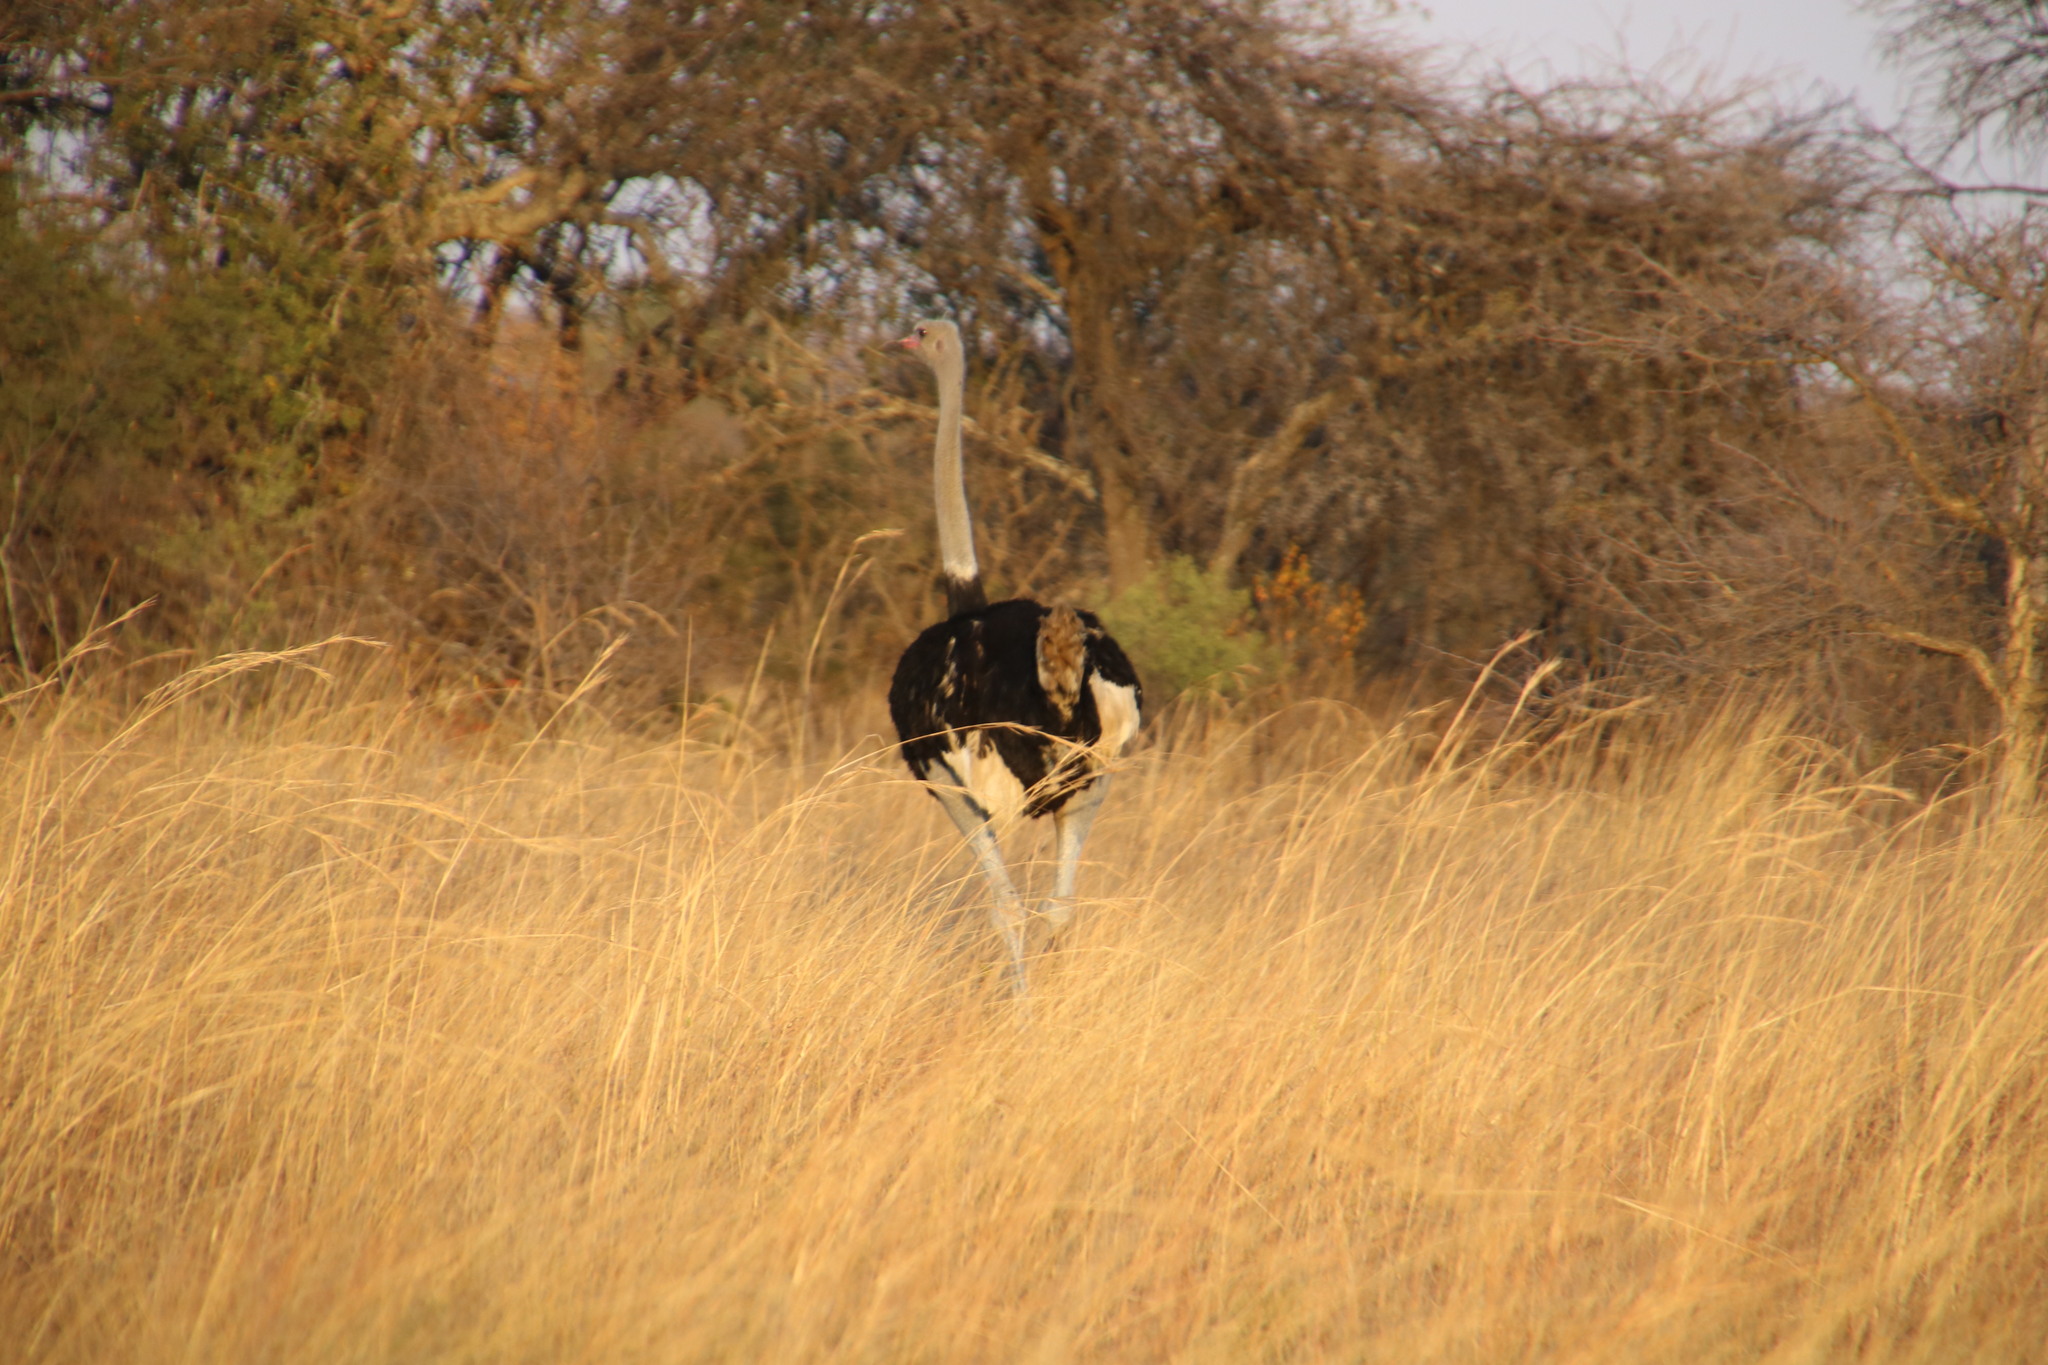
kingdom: Animalia
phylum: Chordata
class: Aves
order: Struthioniformes
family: Struthionidae
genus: Struthio
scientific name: Struthio camelus
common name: Common ostrich
